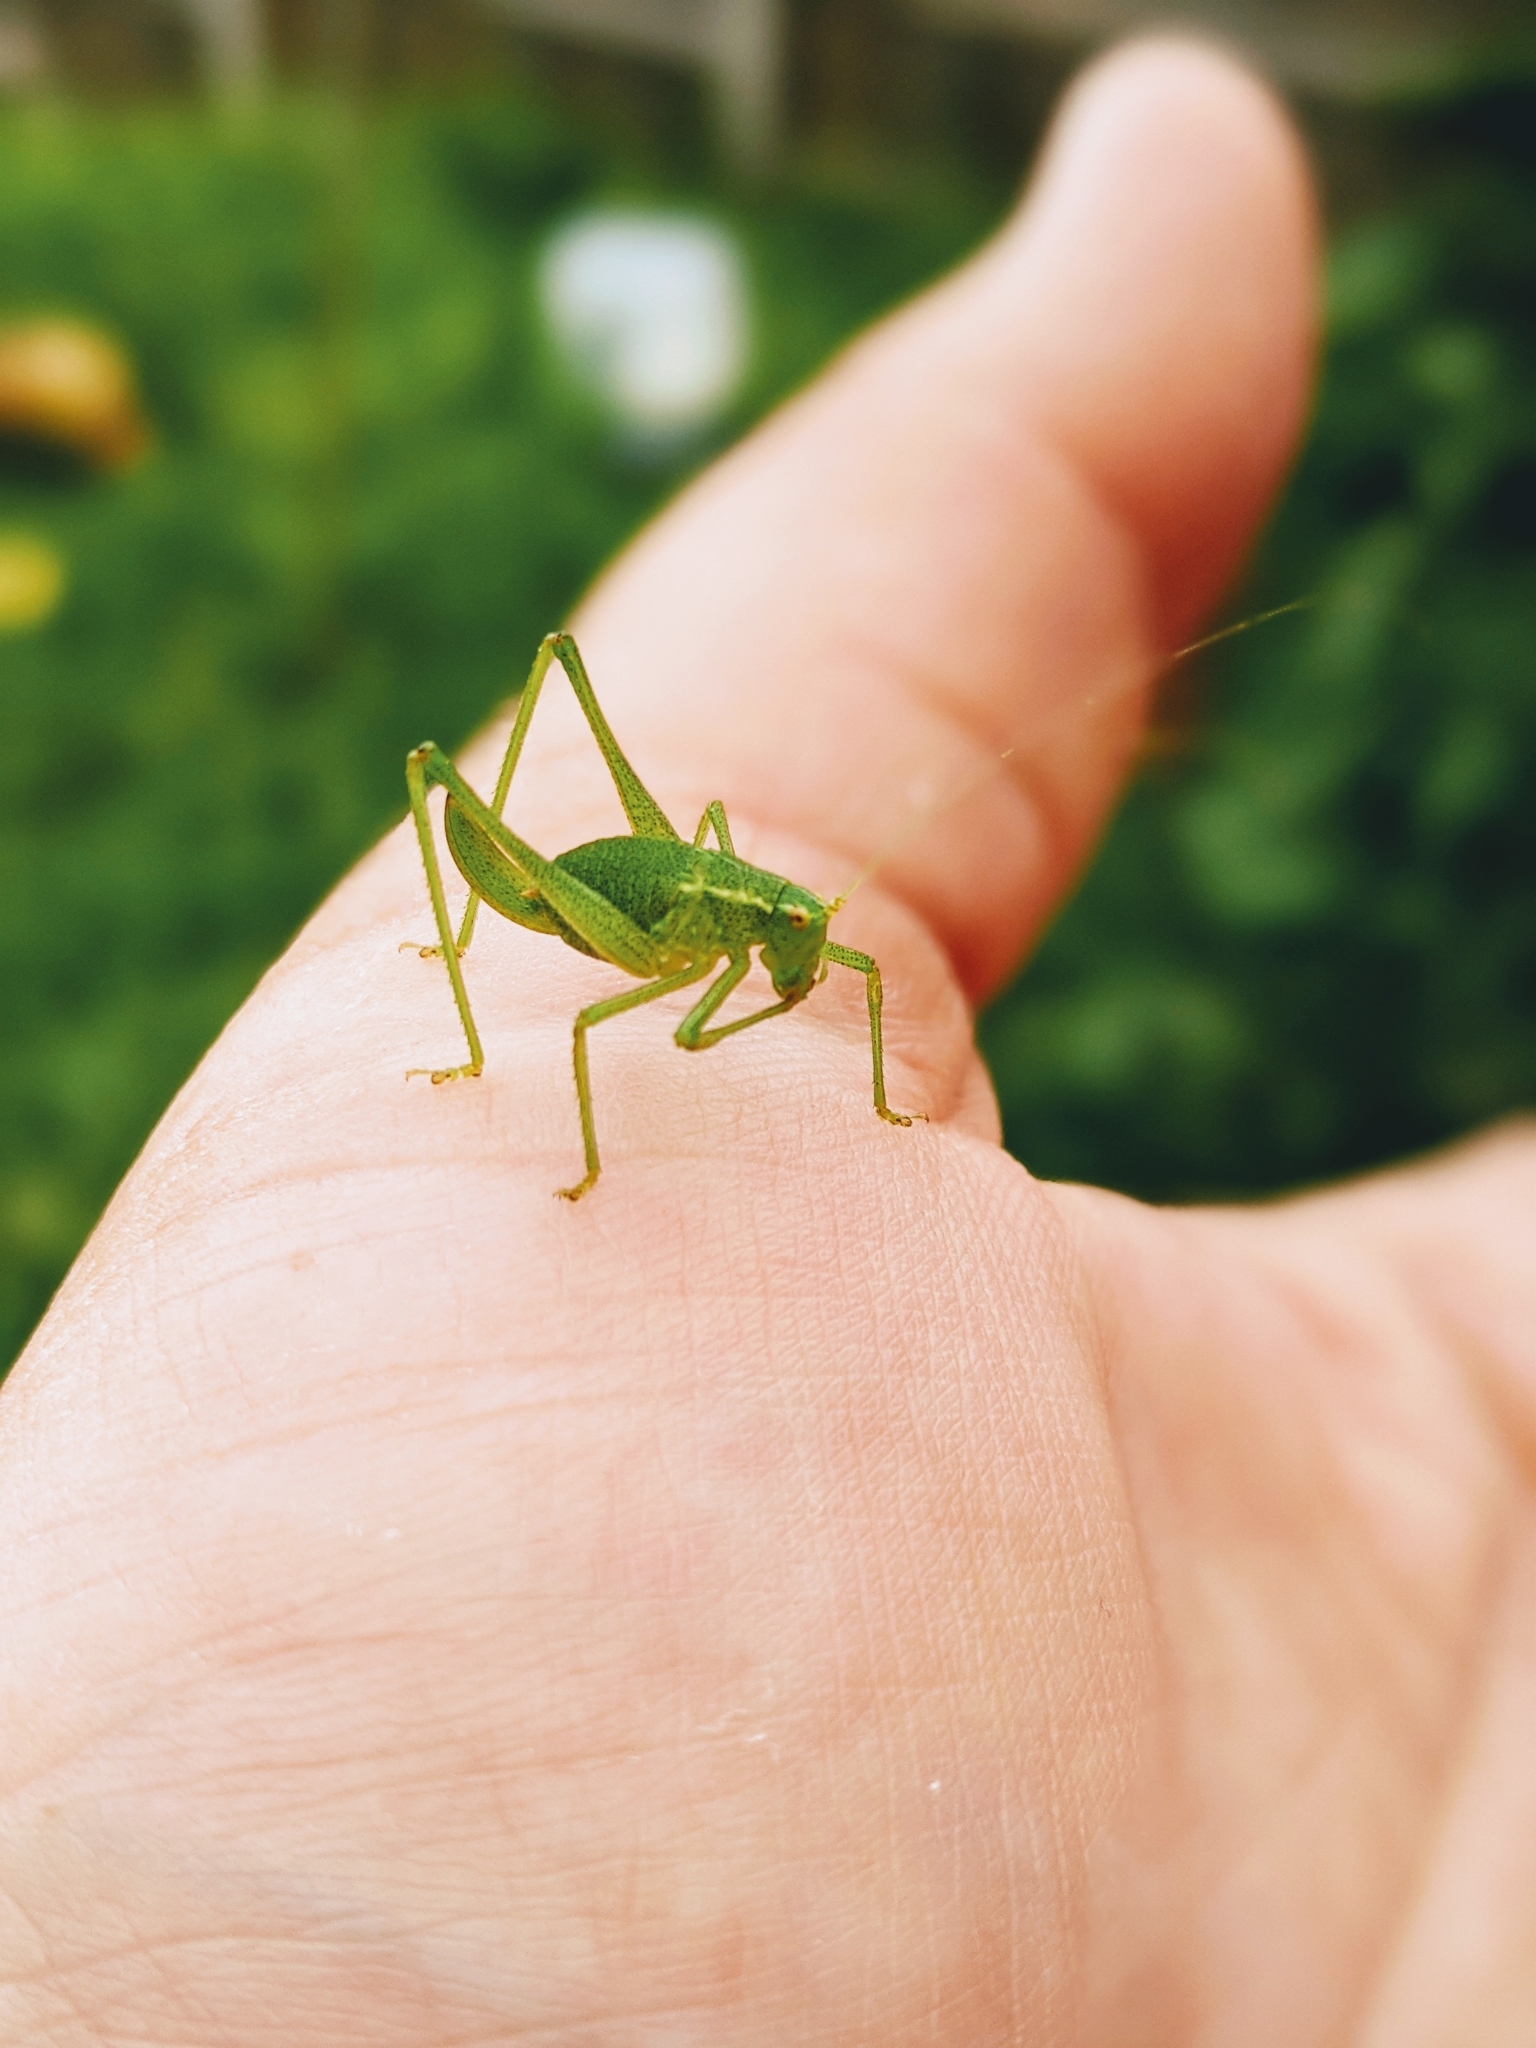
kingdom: Animalia
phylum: Arthropoda
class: Insecta
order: Orthoptera
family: Tettigoniidae
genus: Leptophyes
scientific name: Leptophyes punctatissima
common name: Speckled bush-cricket
